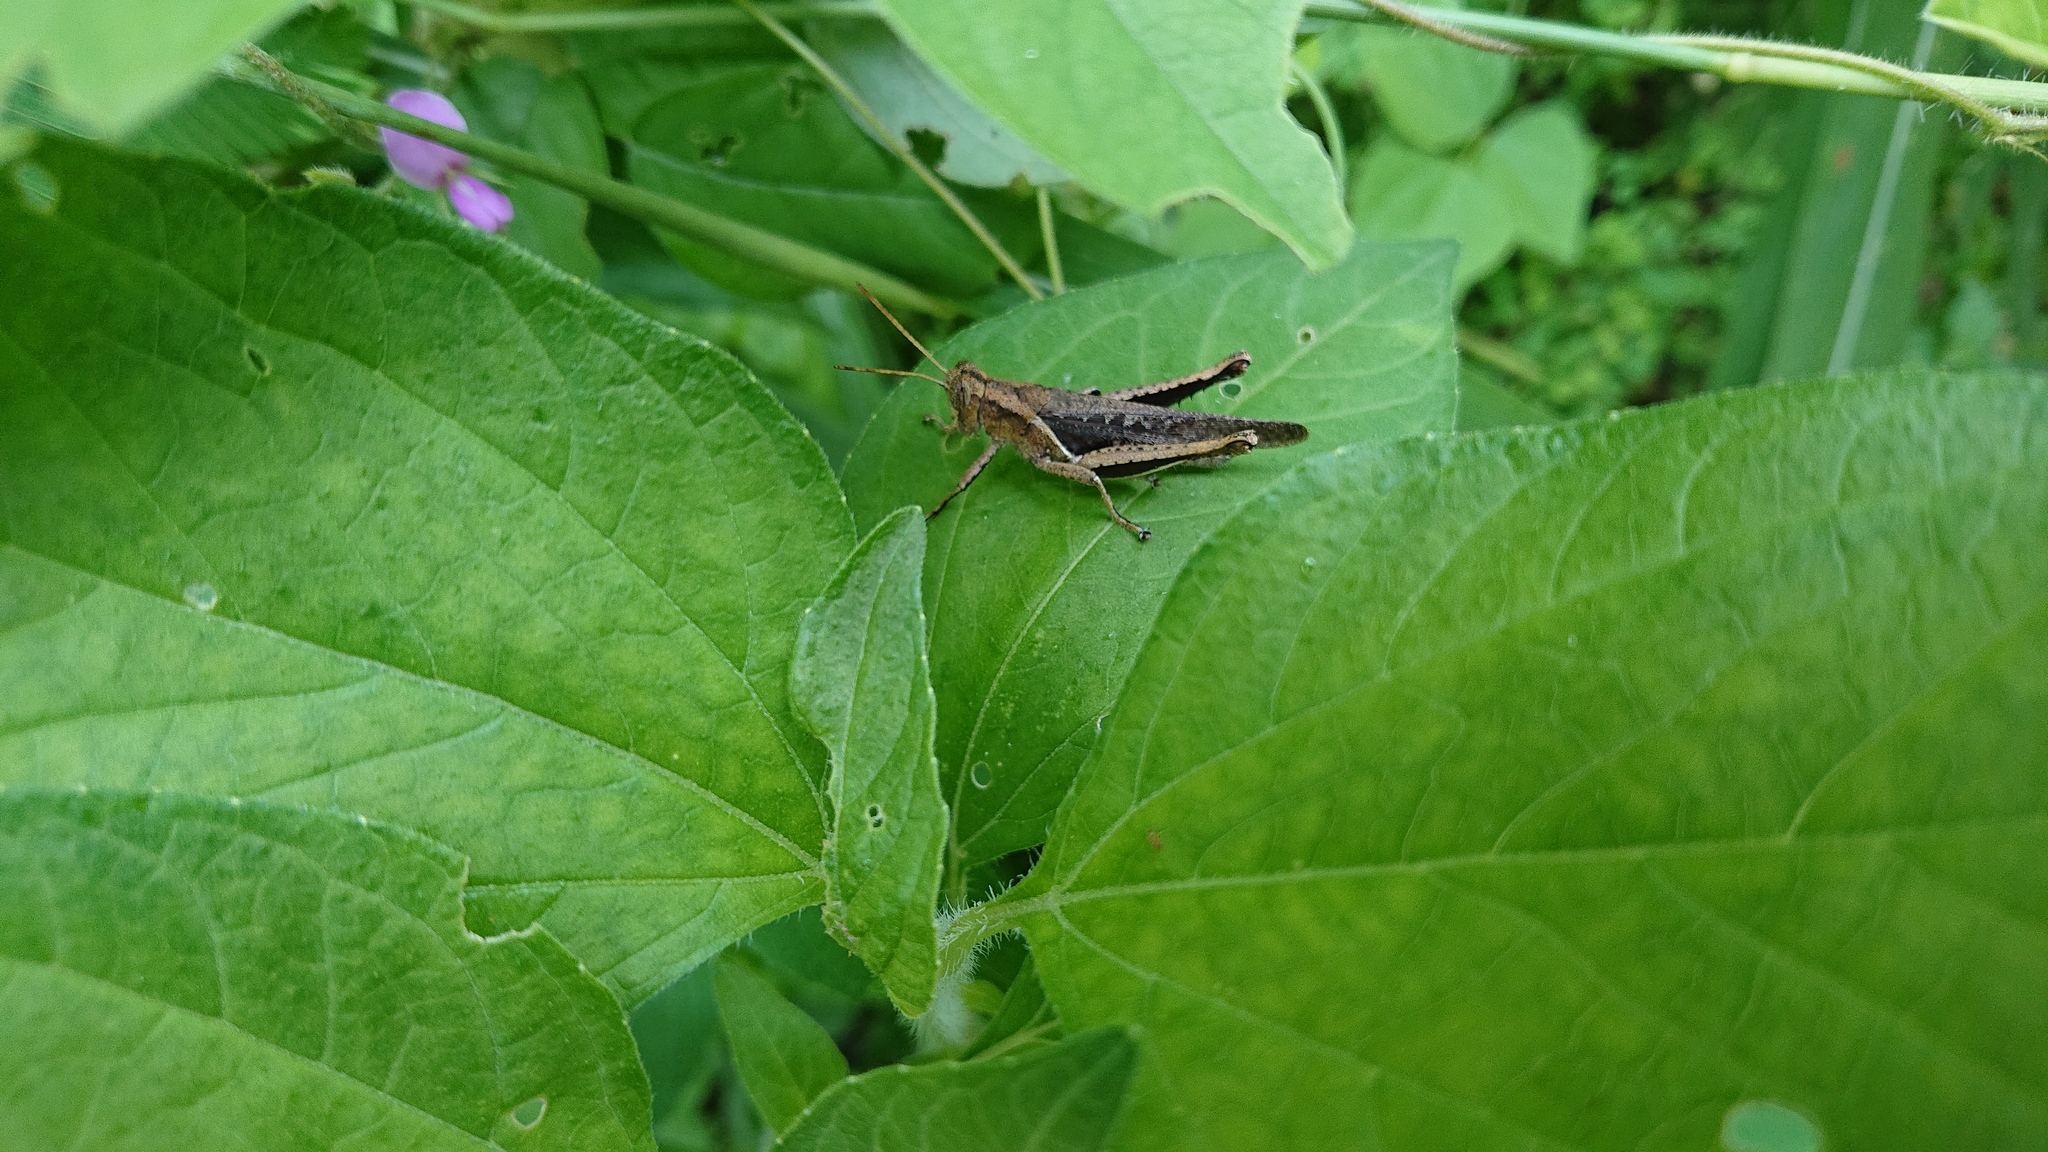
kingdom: Animalia
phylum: Arthropoda
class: Insecta
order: Orthoptera
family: Acrididae
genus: Abracris
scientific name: Abracris flavolineata
